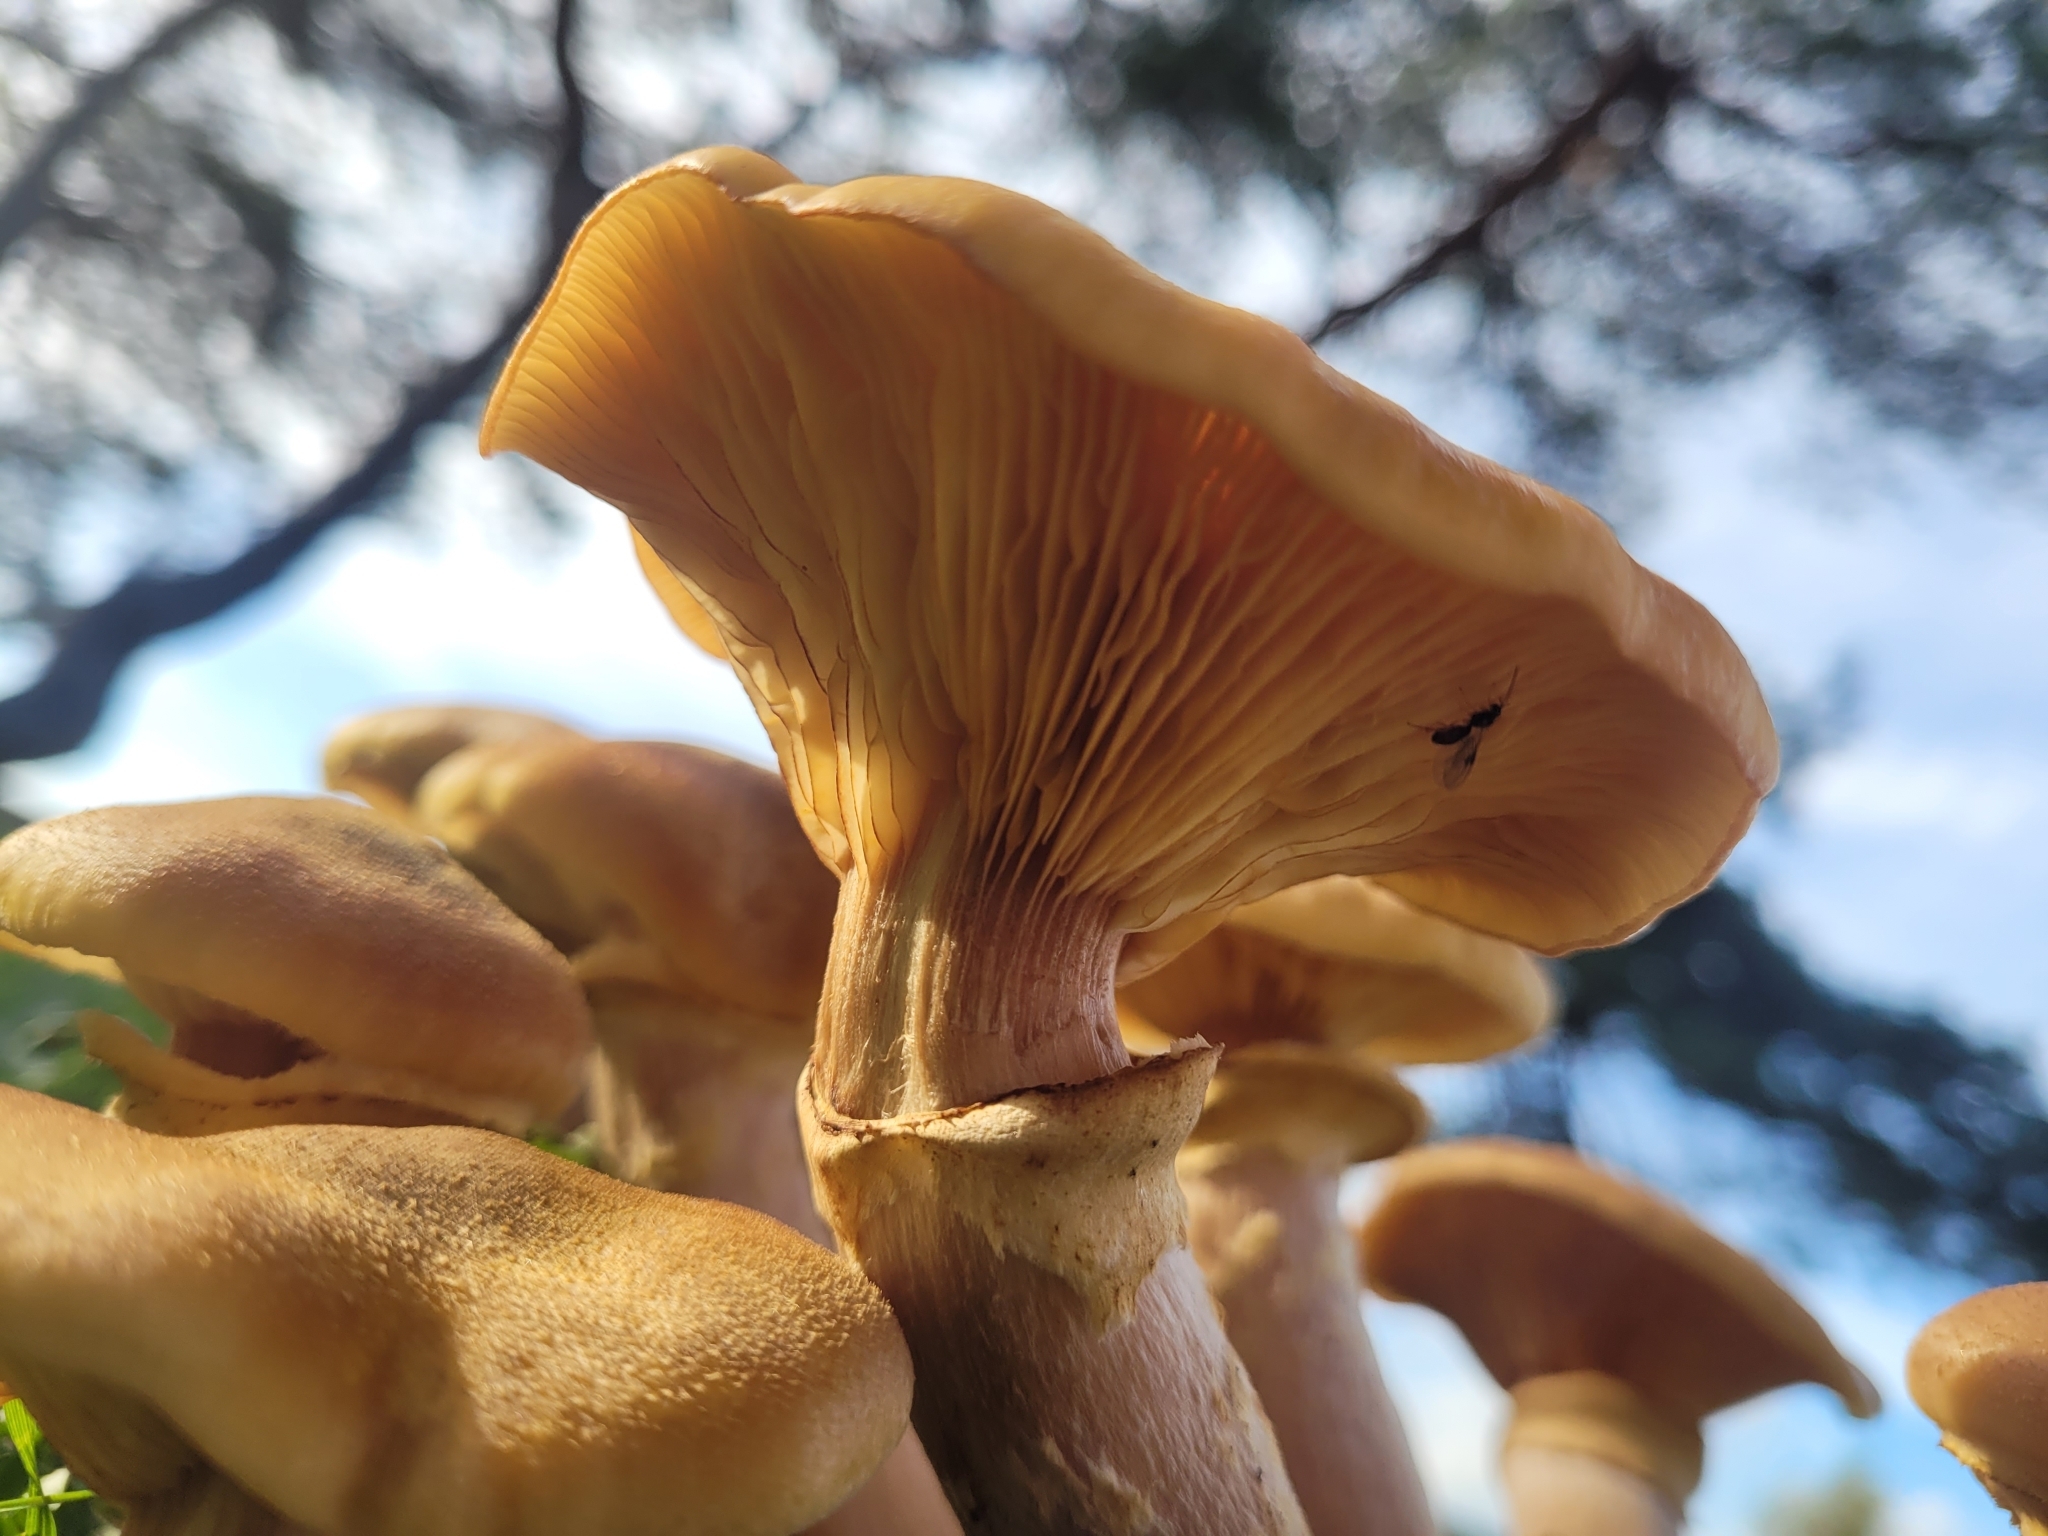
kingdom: Fungi
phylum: Basidiomycota
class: Agaricomycetes
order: Agaricales
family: Physalacriaceae
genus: Armillaria
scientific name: Armillaria mellea
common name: Honey fungus
